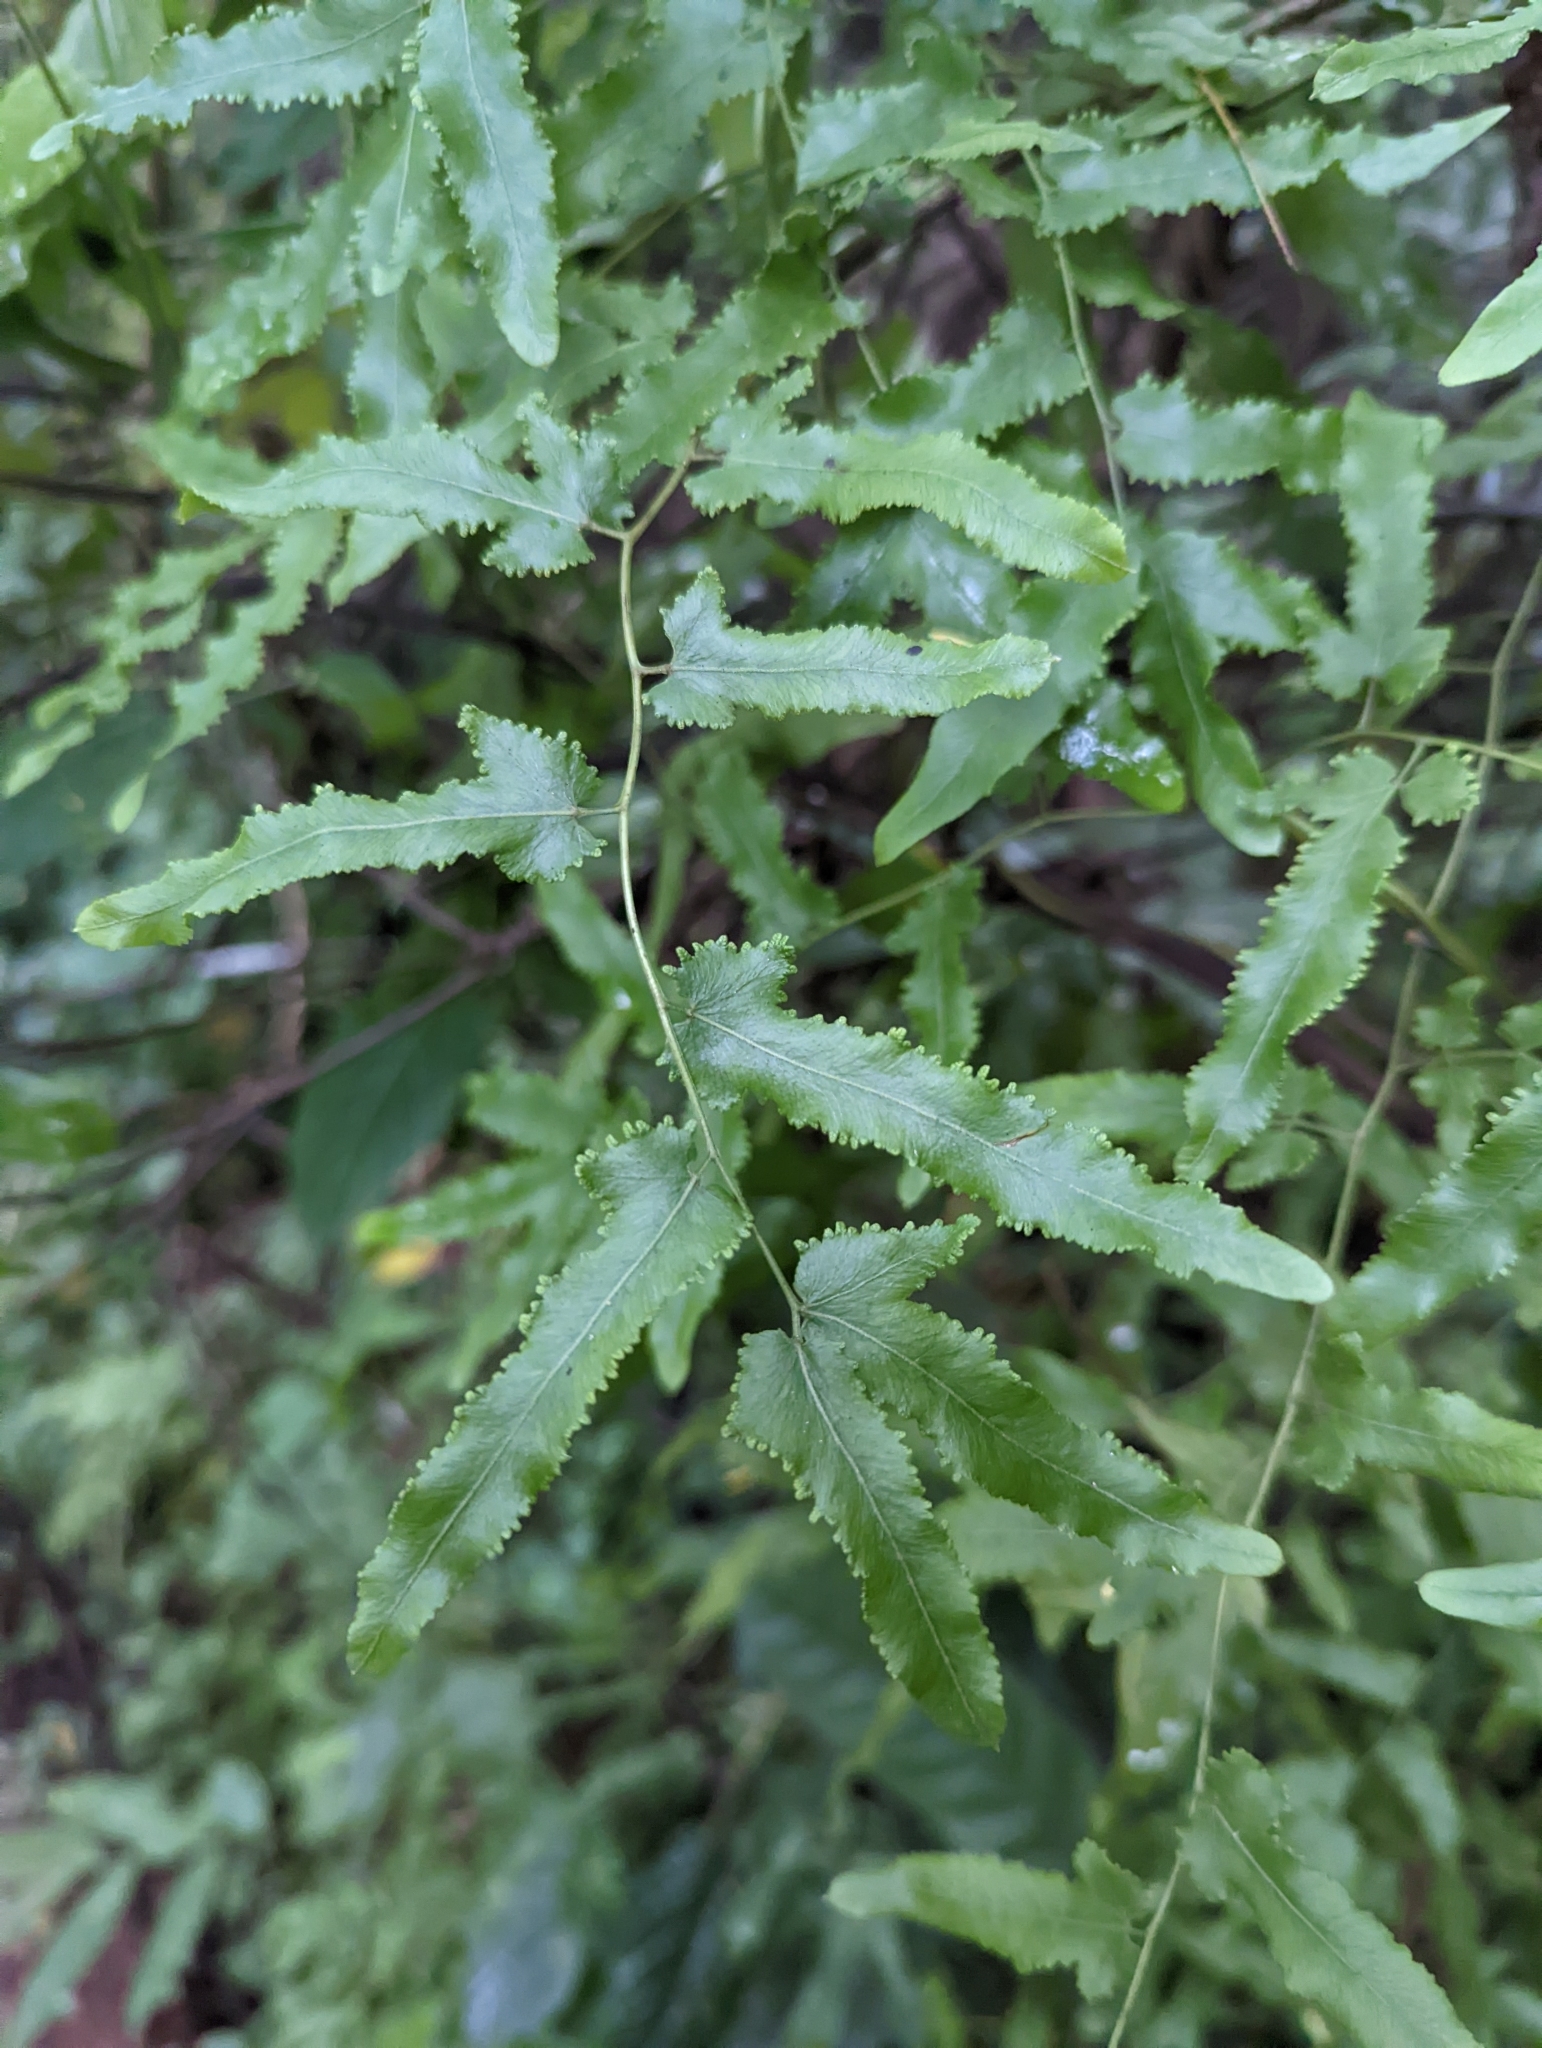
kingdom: Plantae
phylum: Tracheophyta
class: Polypodiopsida
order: Schizaeales
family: Lygodiaceae
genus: Lygodium
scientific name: Lygodium flexuosum
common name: Maidenhair creeper
